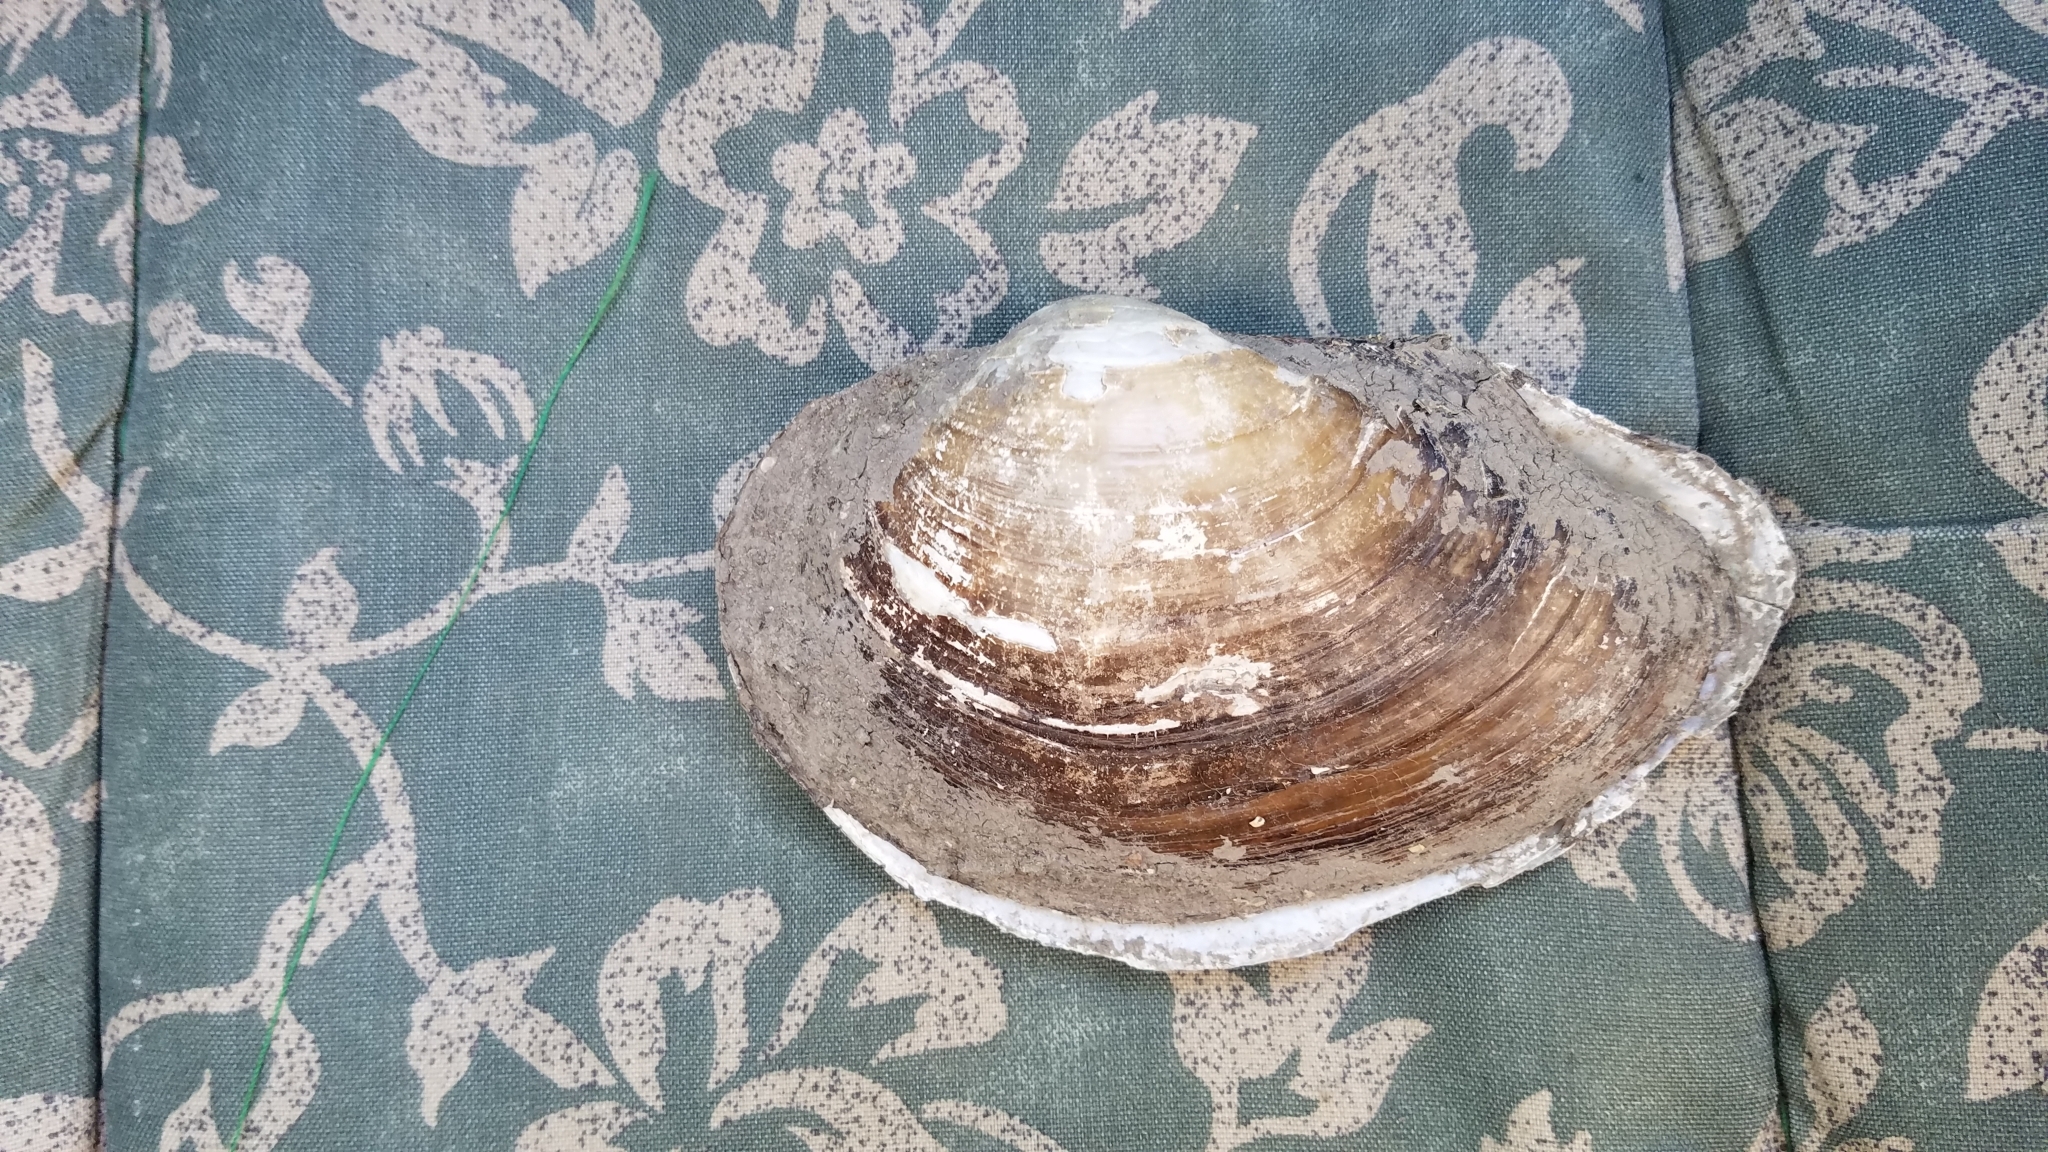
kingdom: Animalia
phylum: Mollusca
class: Bivalvia
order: Unionida
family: Unionidae
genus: Pyganodon
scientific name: Pyganodon grandis
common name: Giant floater
